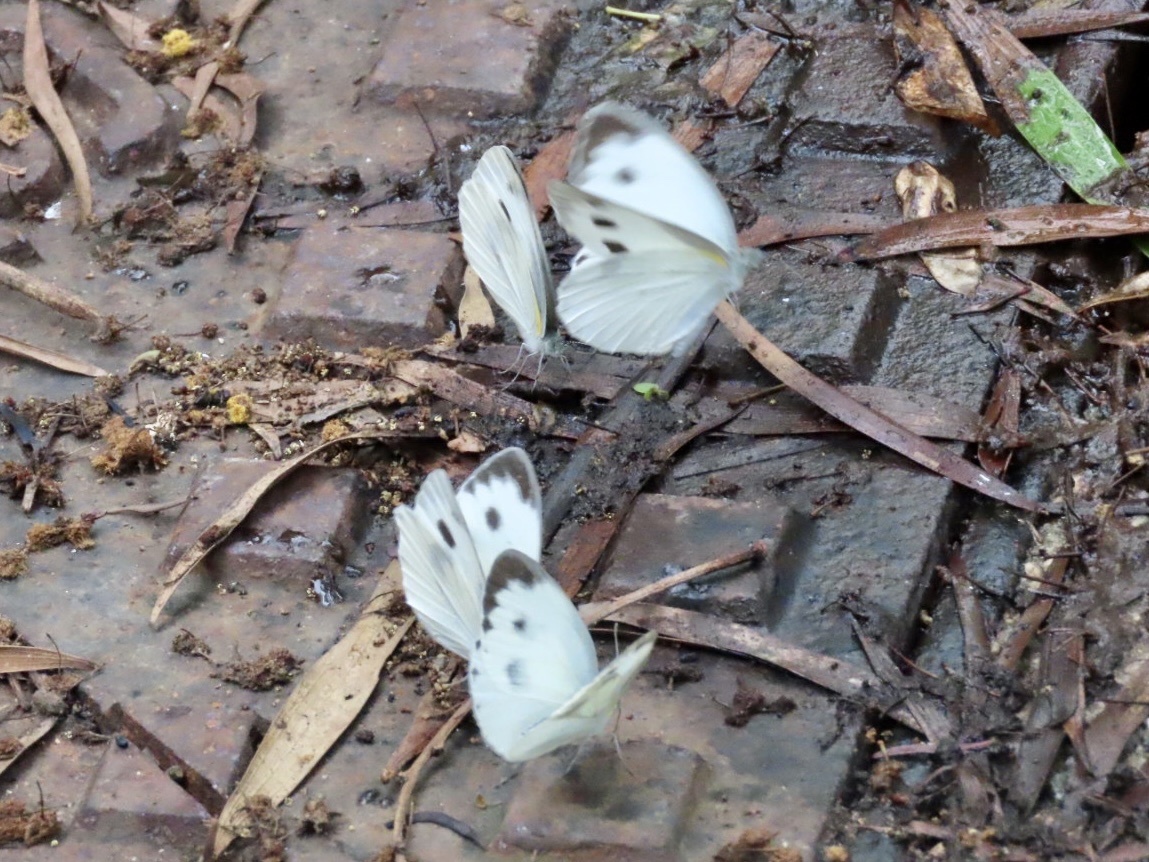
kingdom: Animalia
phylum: Arthropoda
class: Insecta
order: Lepidoptera
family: Pieridae
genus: Pieris
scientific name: Pieris canidia
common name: Indian cabbage white
